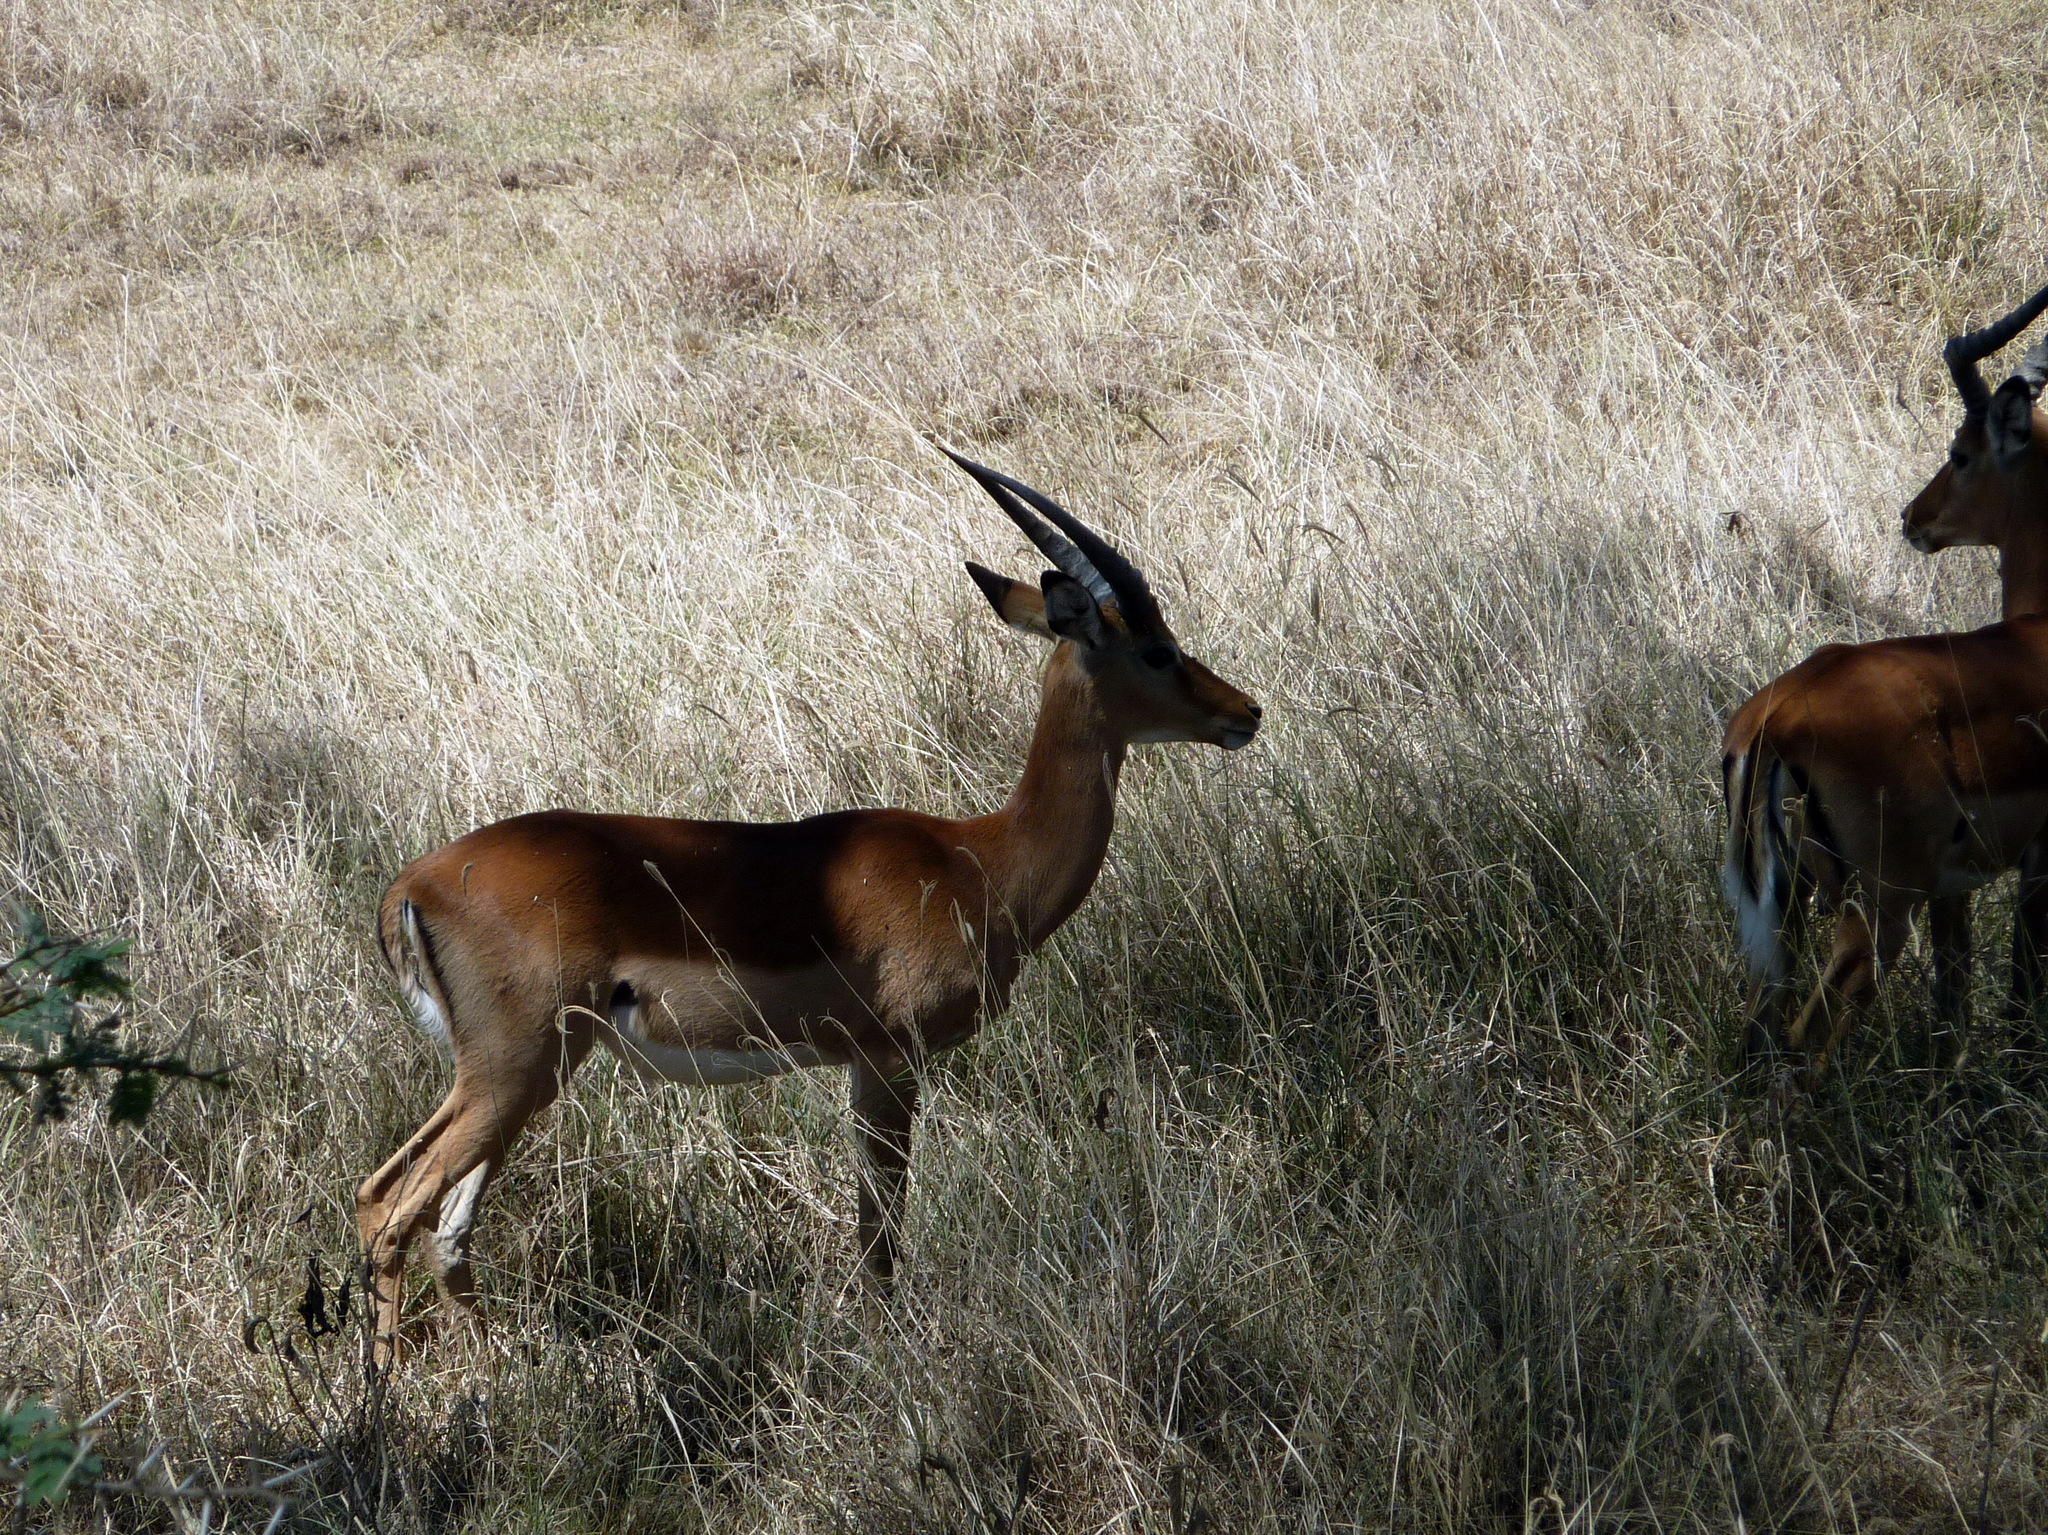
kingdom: Animalia
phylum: Chordata
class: Mammalia
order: Artiodactyla
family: Bovidae
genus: Aepyceros
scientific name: Aepyceros melampus
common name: Impala
